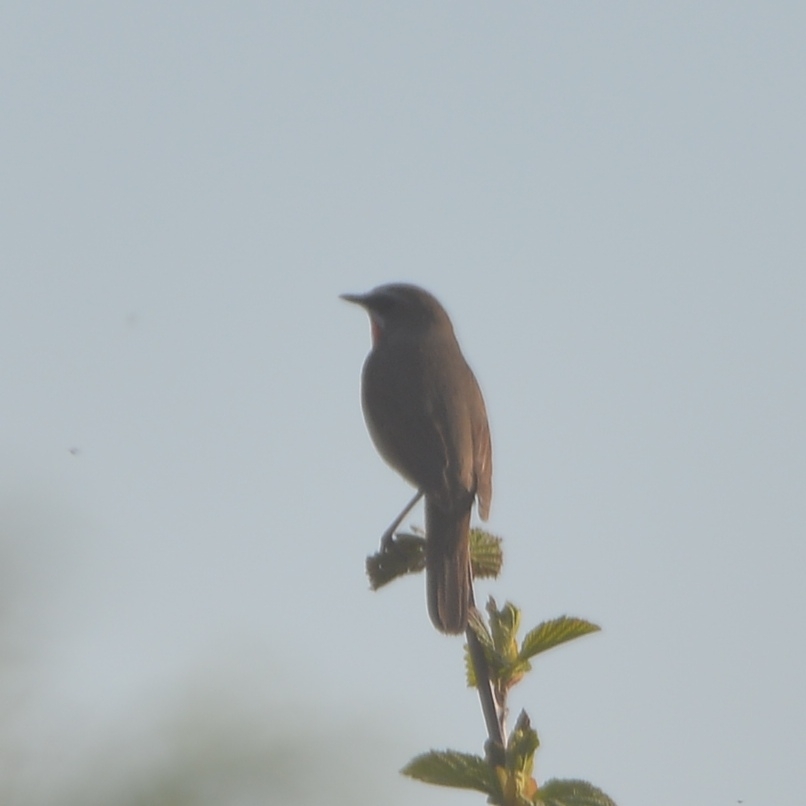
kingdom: Animalia
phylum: Chordata
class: Aves
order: Passeriformes
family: Muscicapidae
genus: Luscinia
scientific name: Luscinia calliope
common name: Siberian rubythroat
